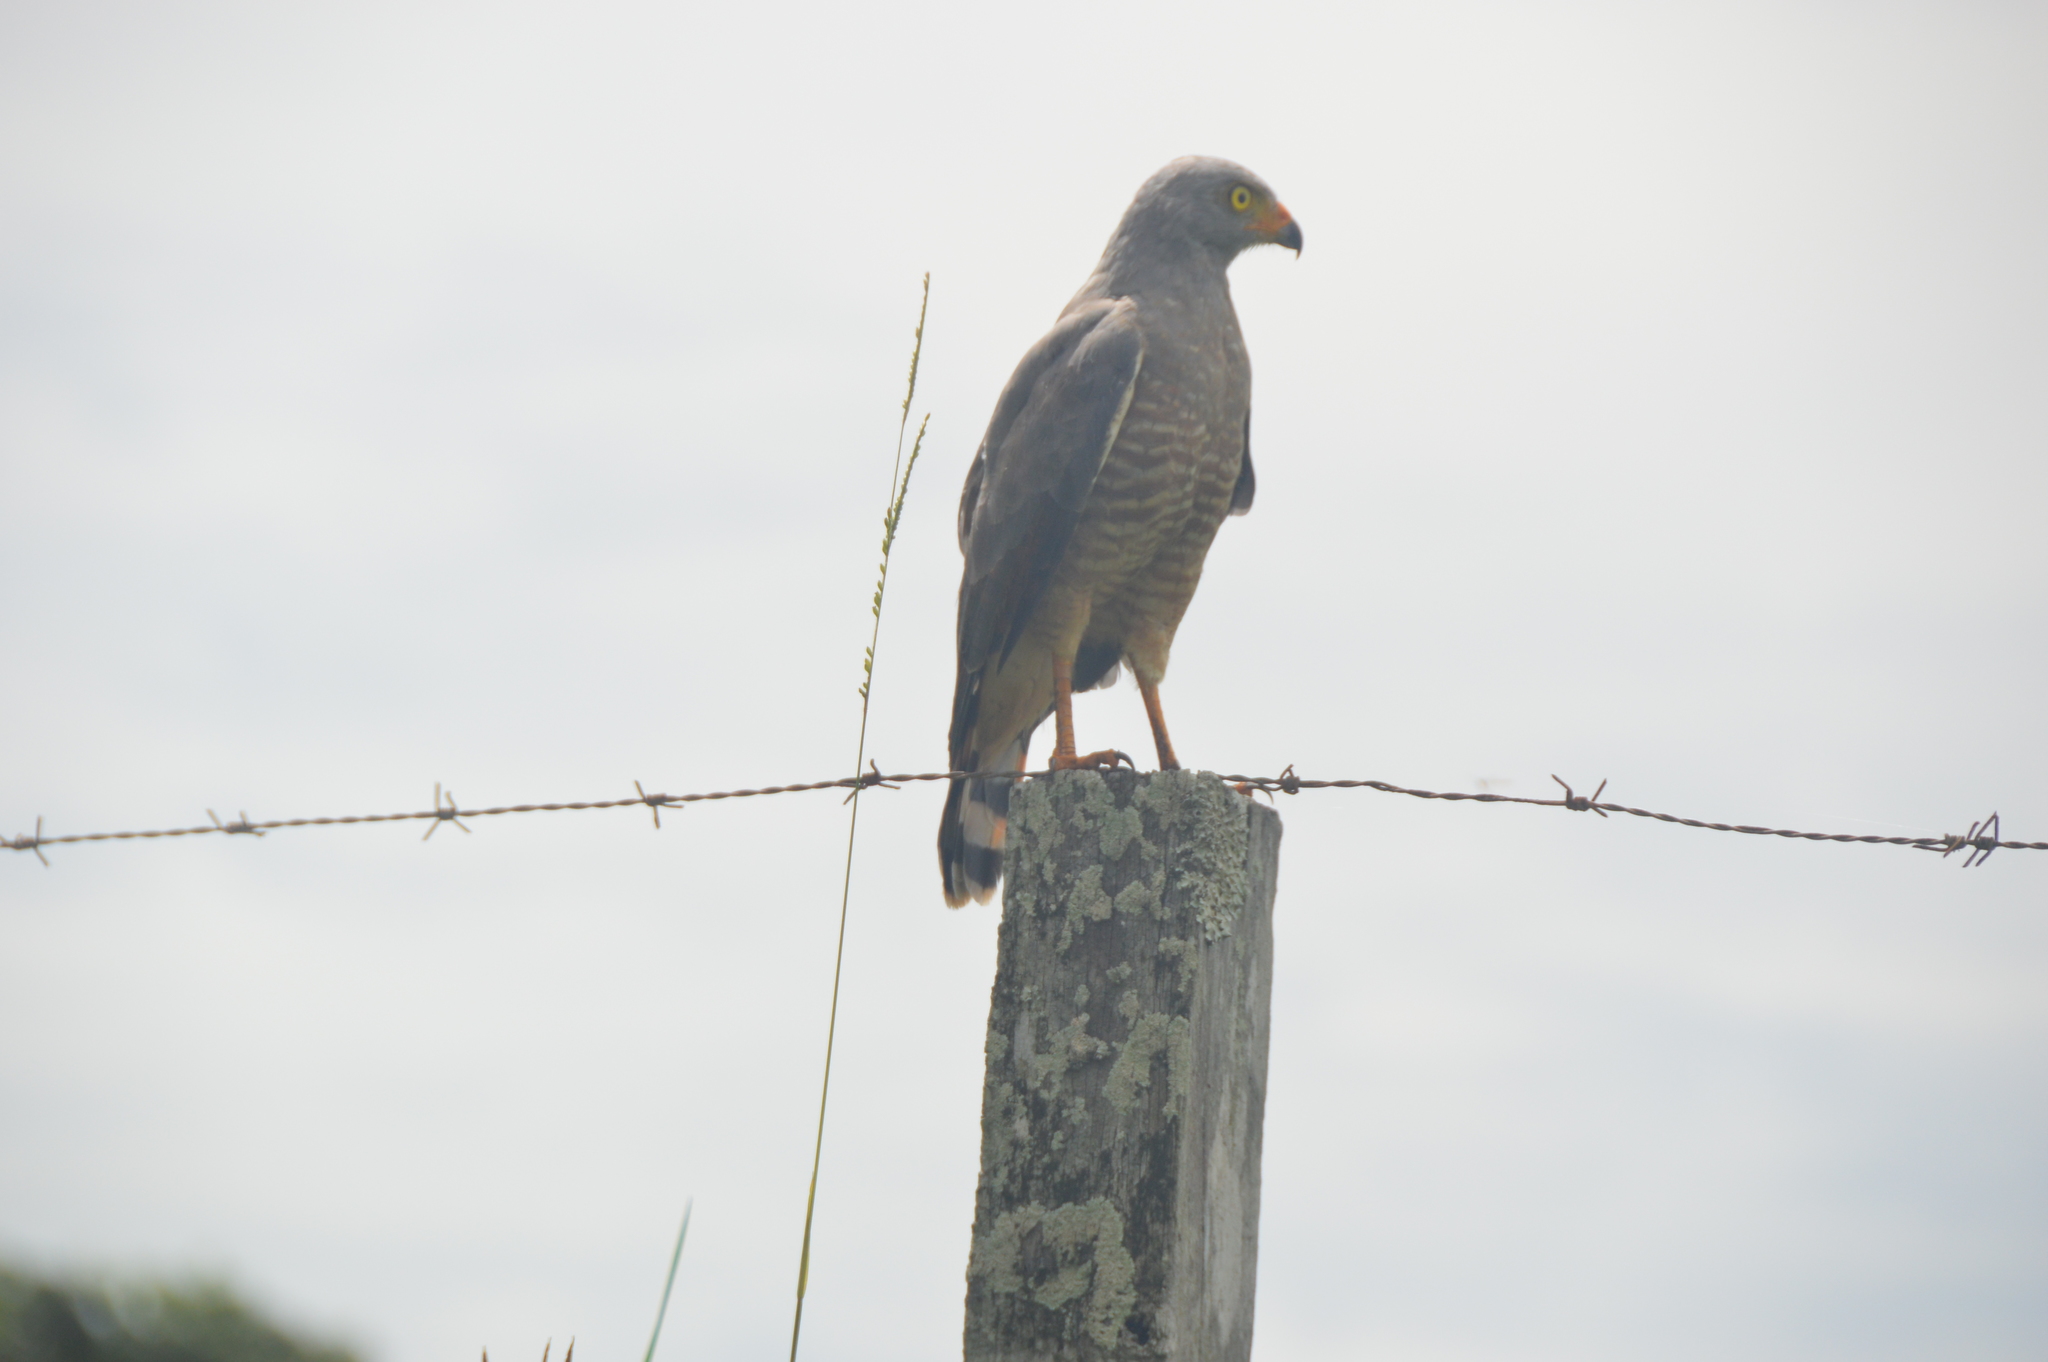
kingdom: Animalia
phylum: Chordata
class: Aves
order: Accipitriformes
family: Accipitridae
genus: Rupornis
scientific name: Rupornis magnirostris
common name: Roadside hawk
